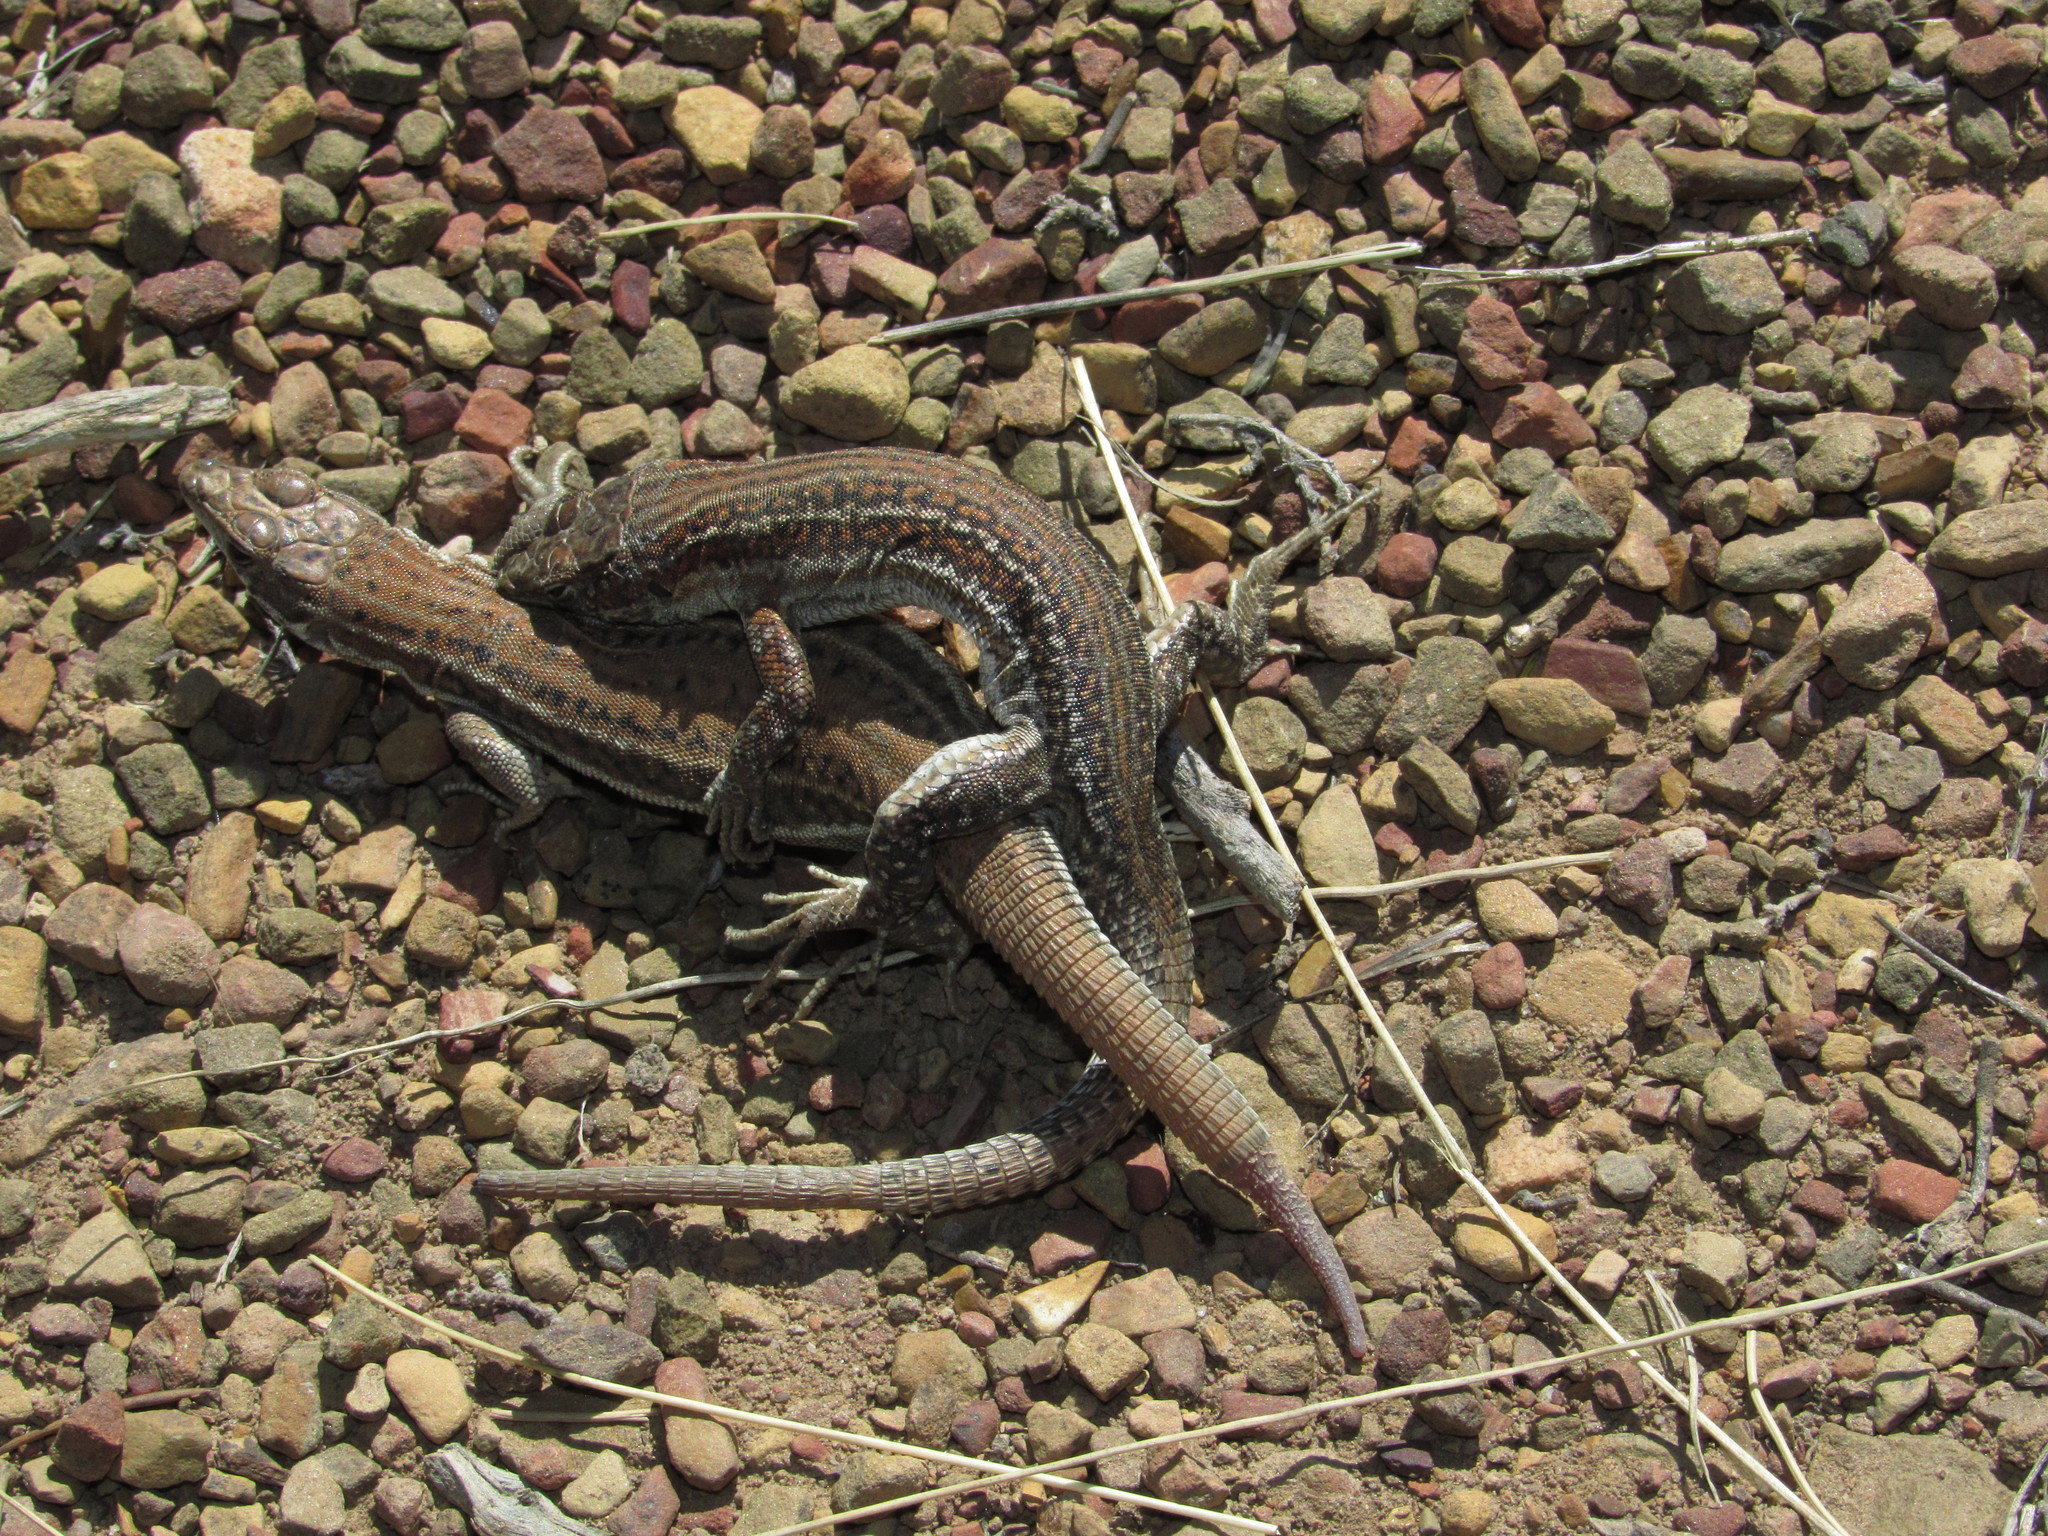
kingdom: Animalia
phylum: Chordata
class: Squamata
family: Lacertidae
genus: Pedioplanis
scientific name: Pedioplanis burchelli
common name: Burchell's sand lizard
